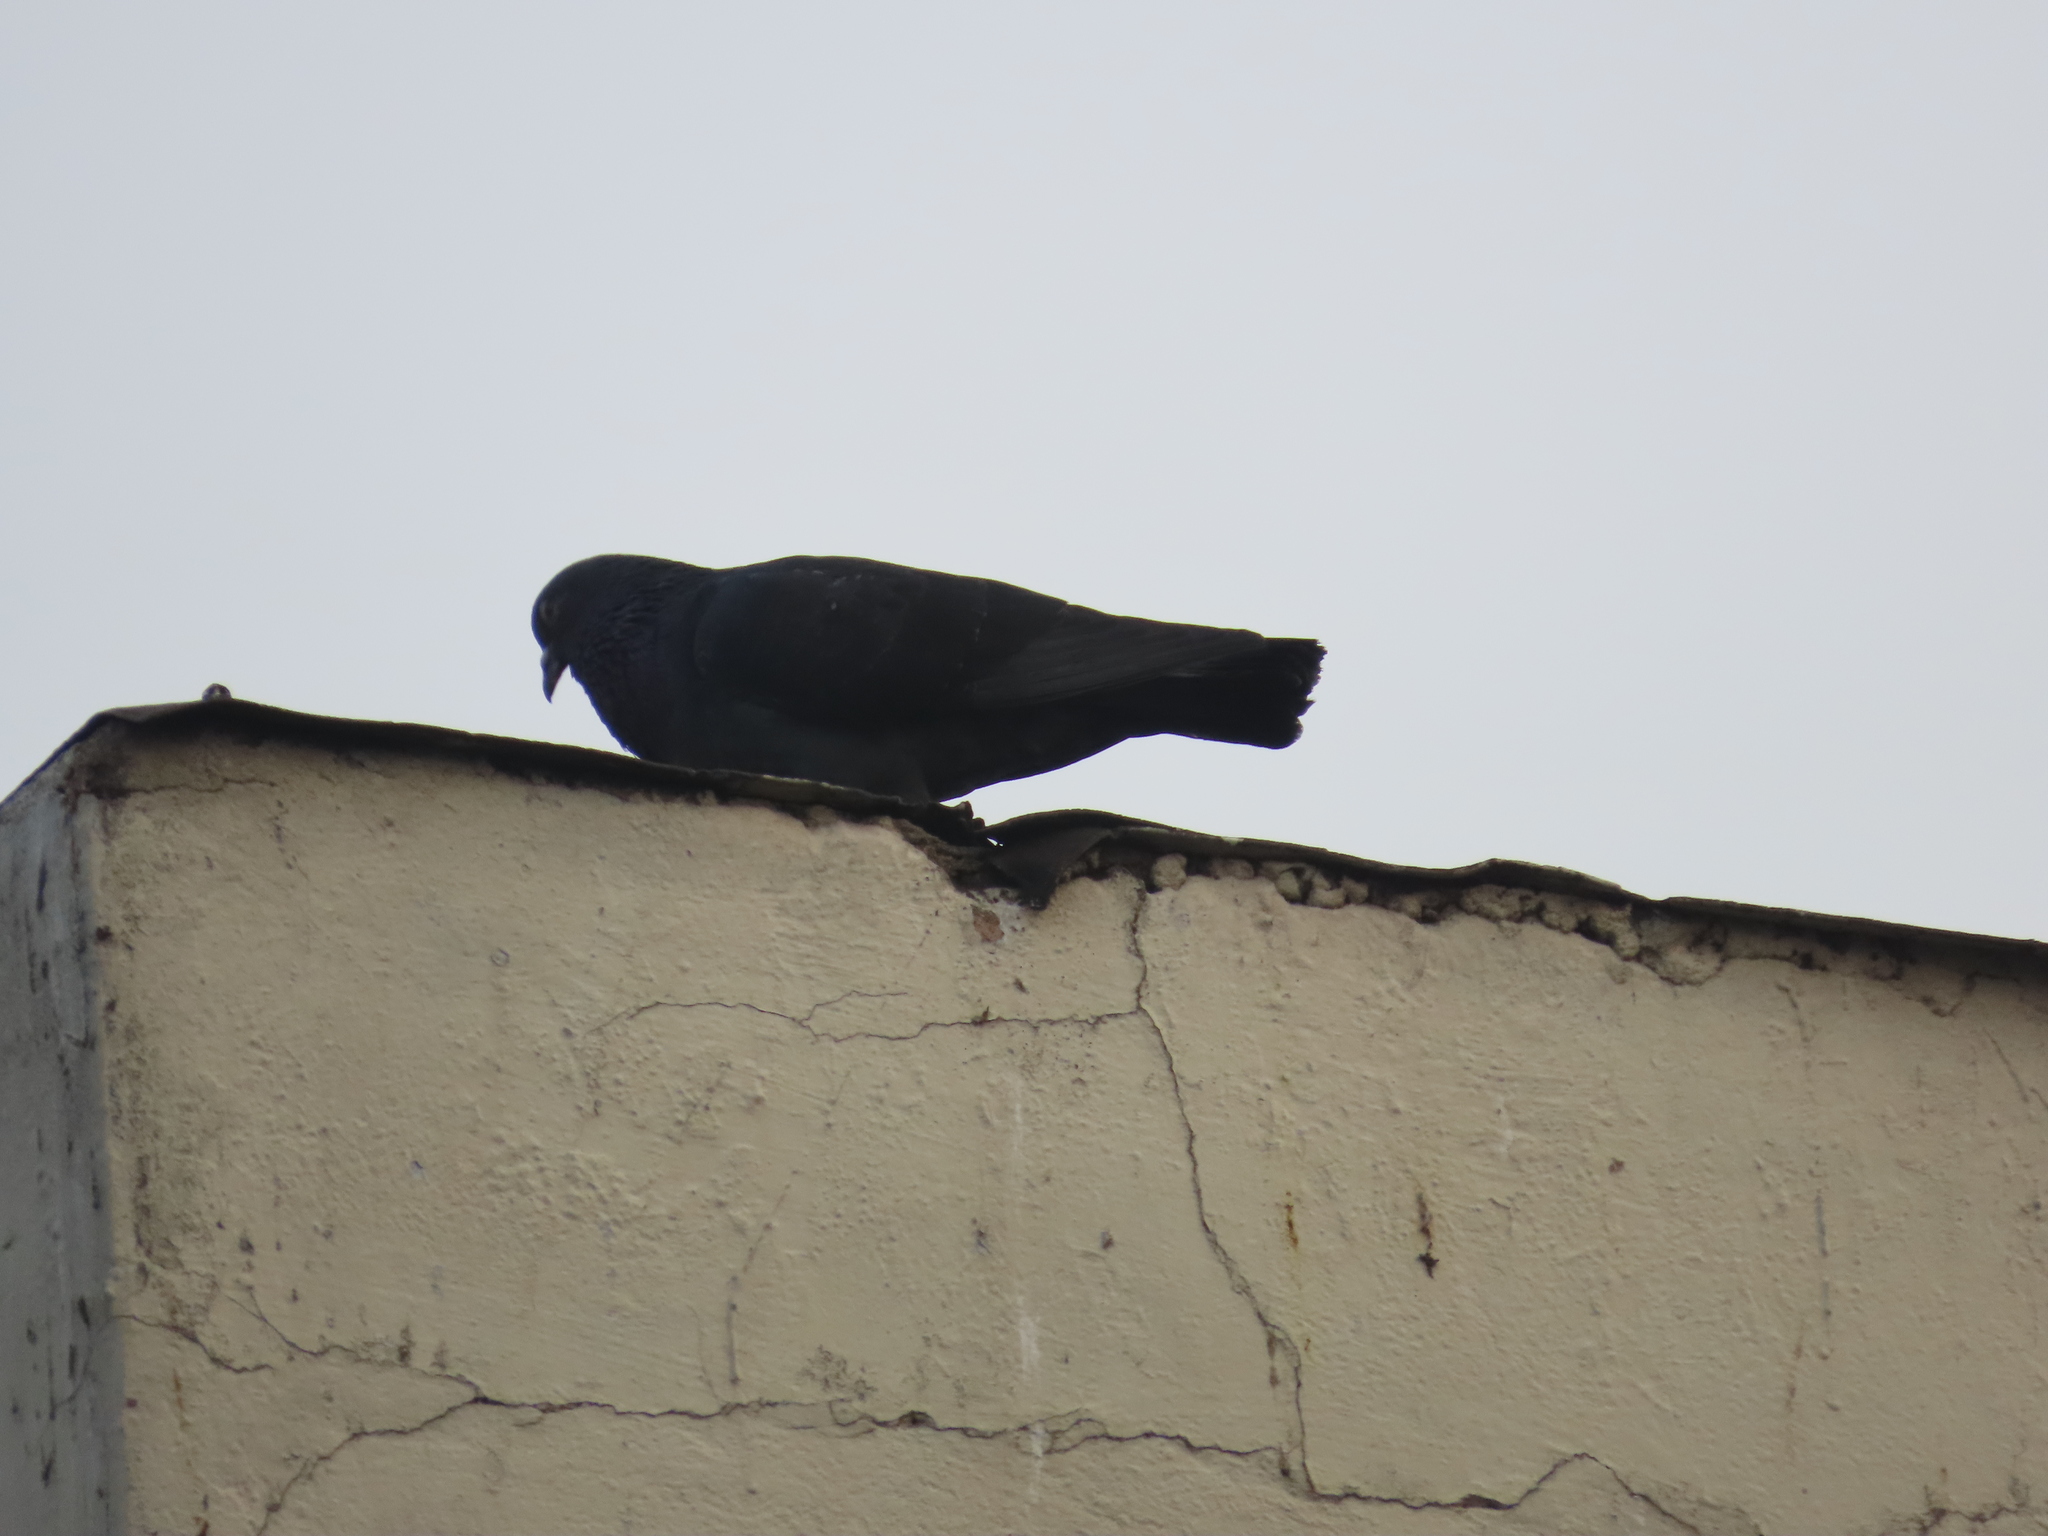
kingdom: Animalia
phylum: Chordata
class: Aves
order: Columbiformes
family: Columbidae
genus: Columba
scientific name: Columba livia
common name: Rock pigeon
